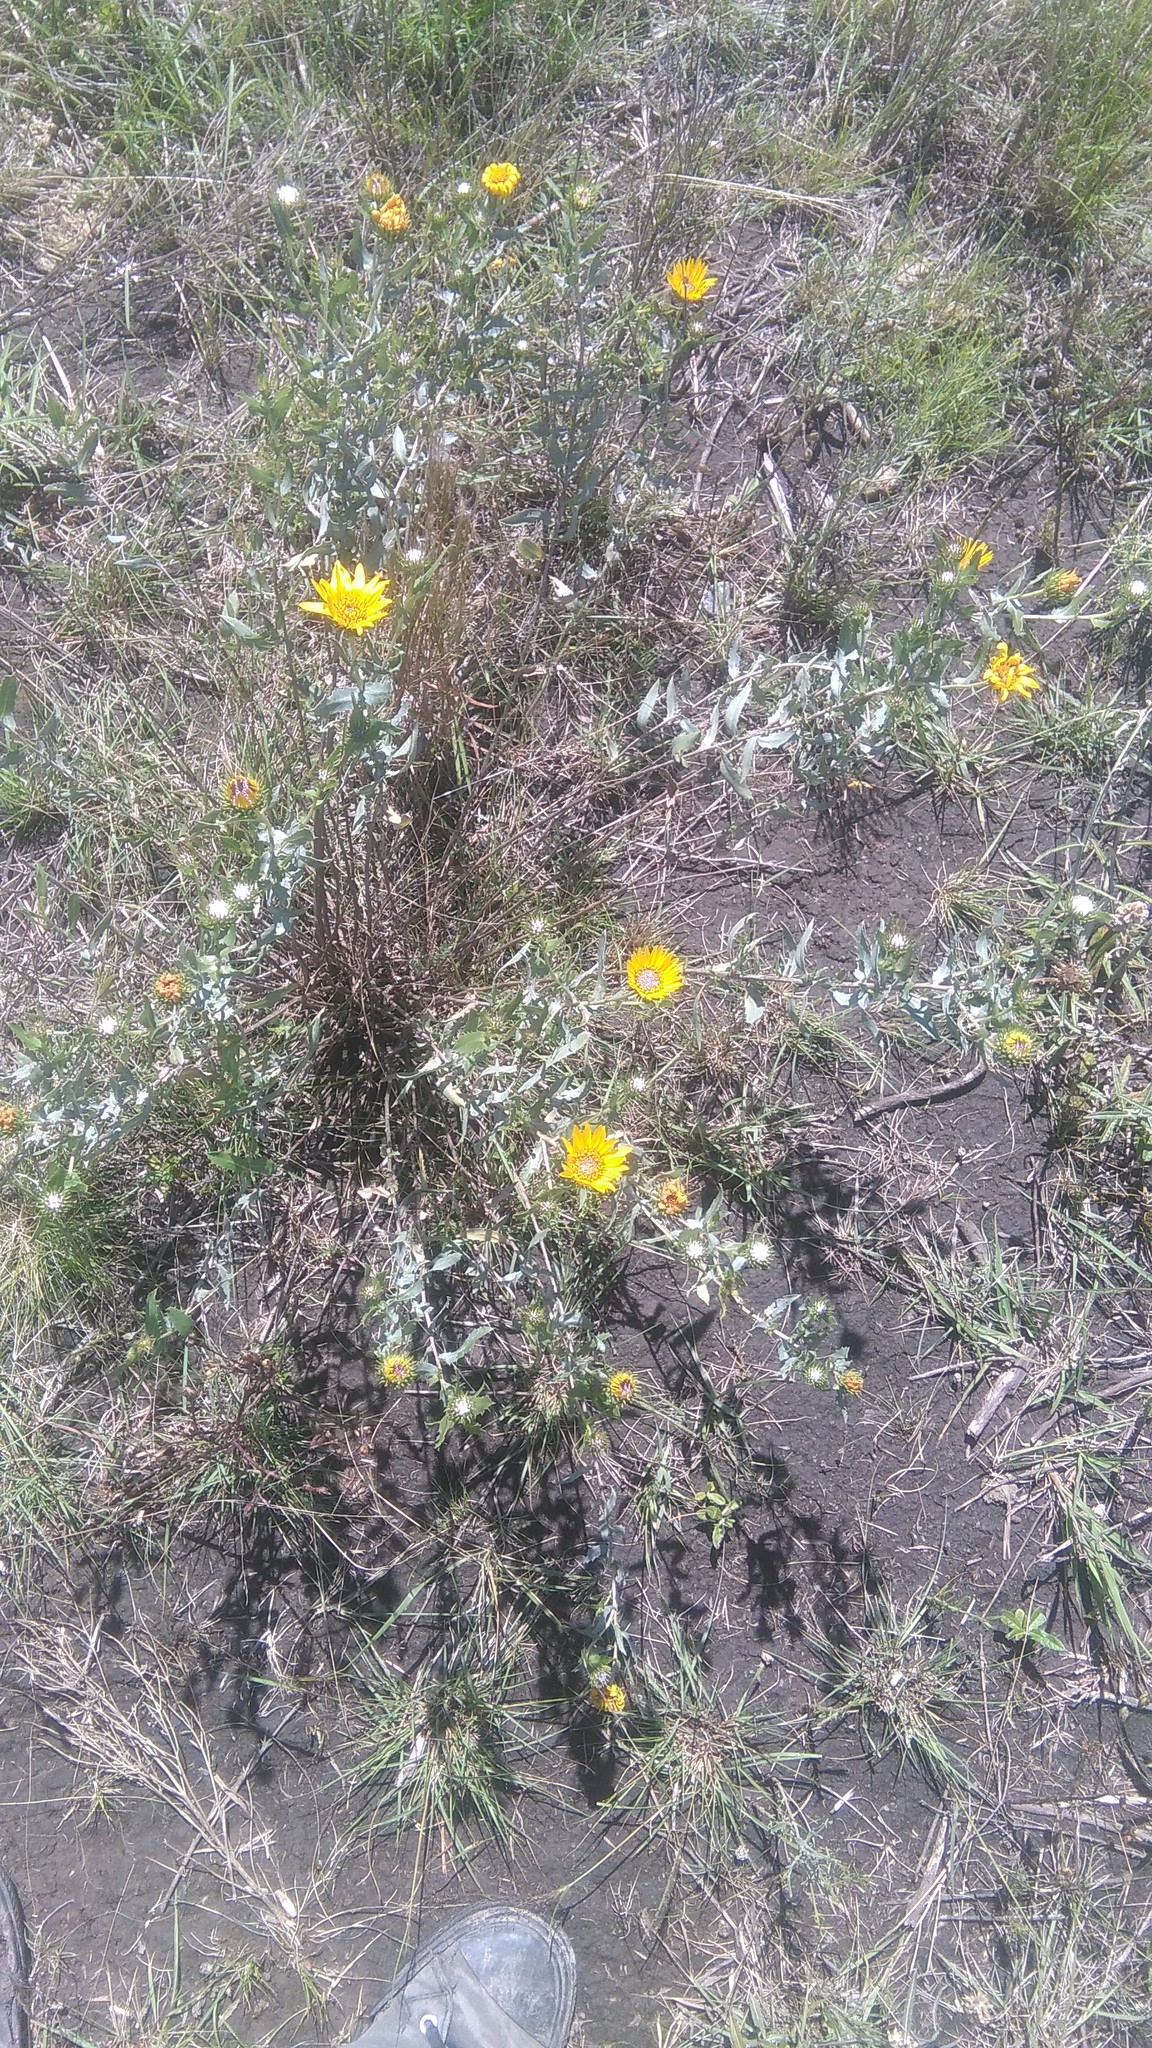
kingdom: Plantae
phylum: Tracheophyta
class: Magnoliopsida
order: Asterales
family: Asteraceae
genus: Grindelia
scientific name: Grindelia pulchella
